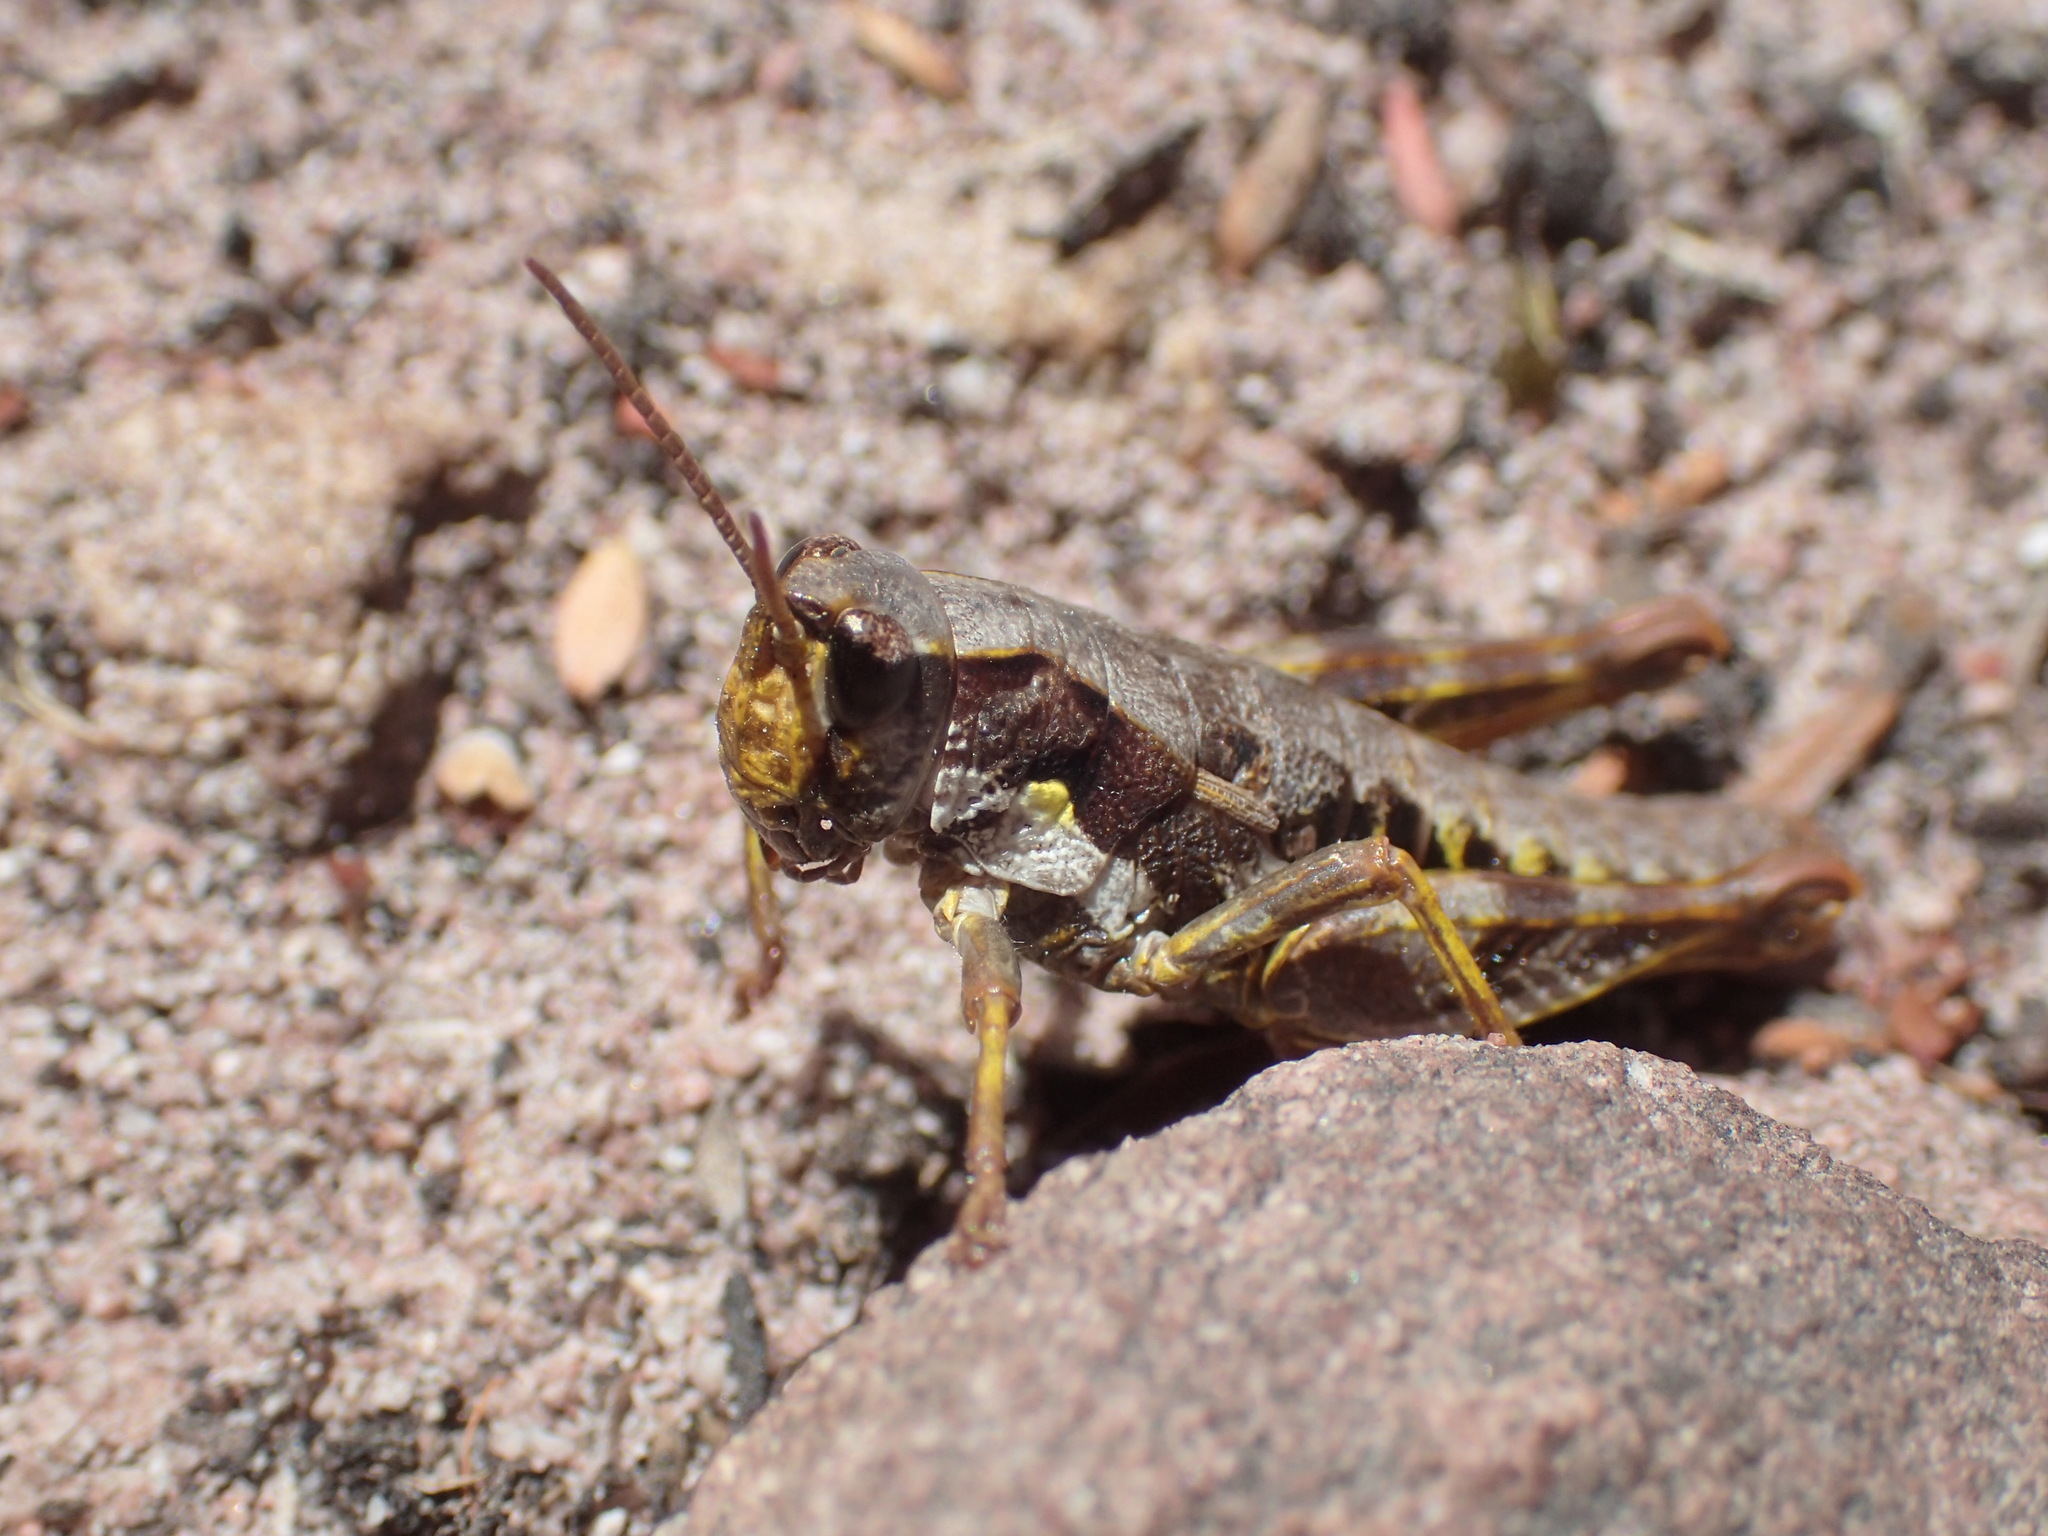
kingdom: Animalia
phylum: Arthropoda
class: Insecta
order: Orthoptera
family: Acrididae
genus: Tasmaniacris
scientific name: Tasmaniacris tasmaniensis
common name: Tasmanian grasshopper
